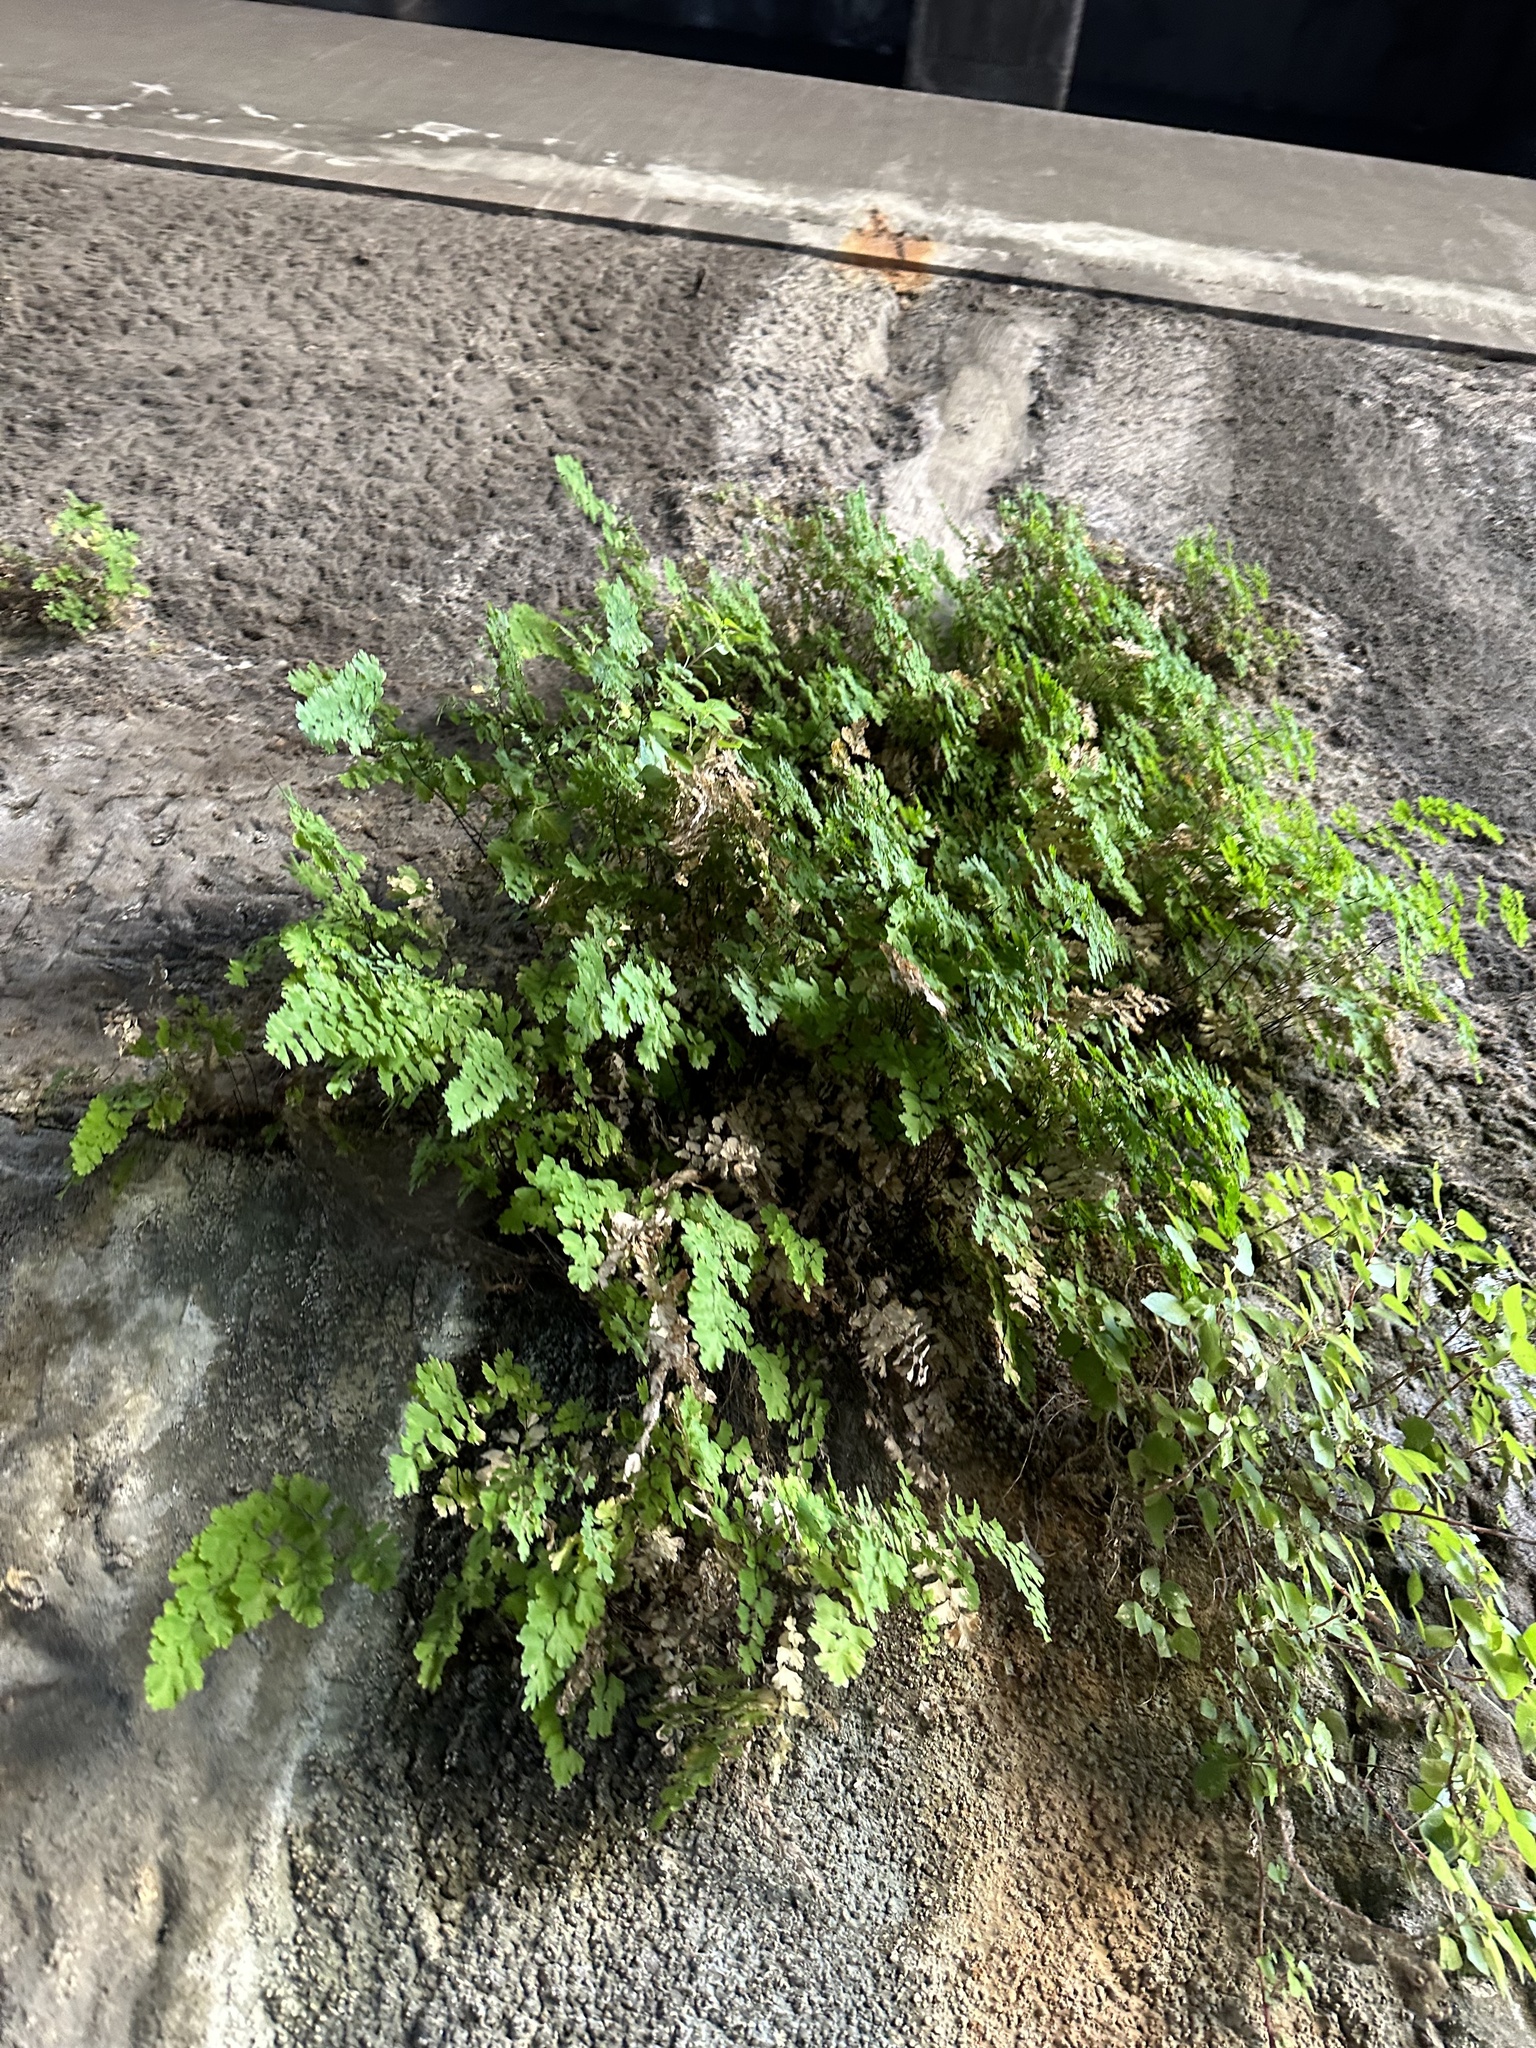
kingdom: Plantae
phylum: Tracheophyta
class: Polypodiopsida
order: Polypodiales
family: Pteridaceae
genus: Adiantum
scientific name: Adiantum capillus-veneris
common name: Maidenhair fern
